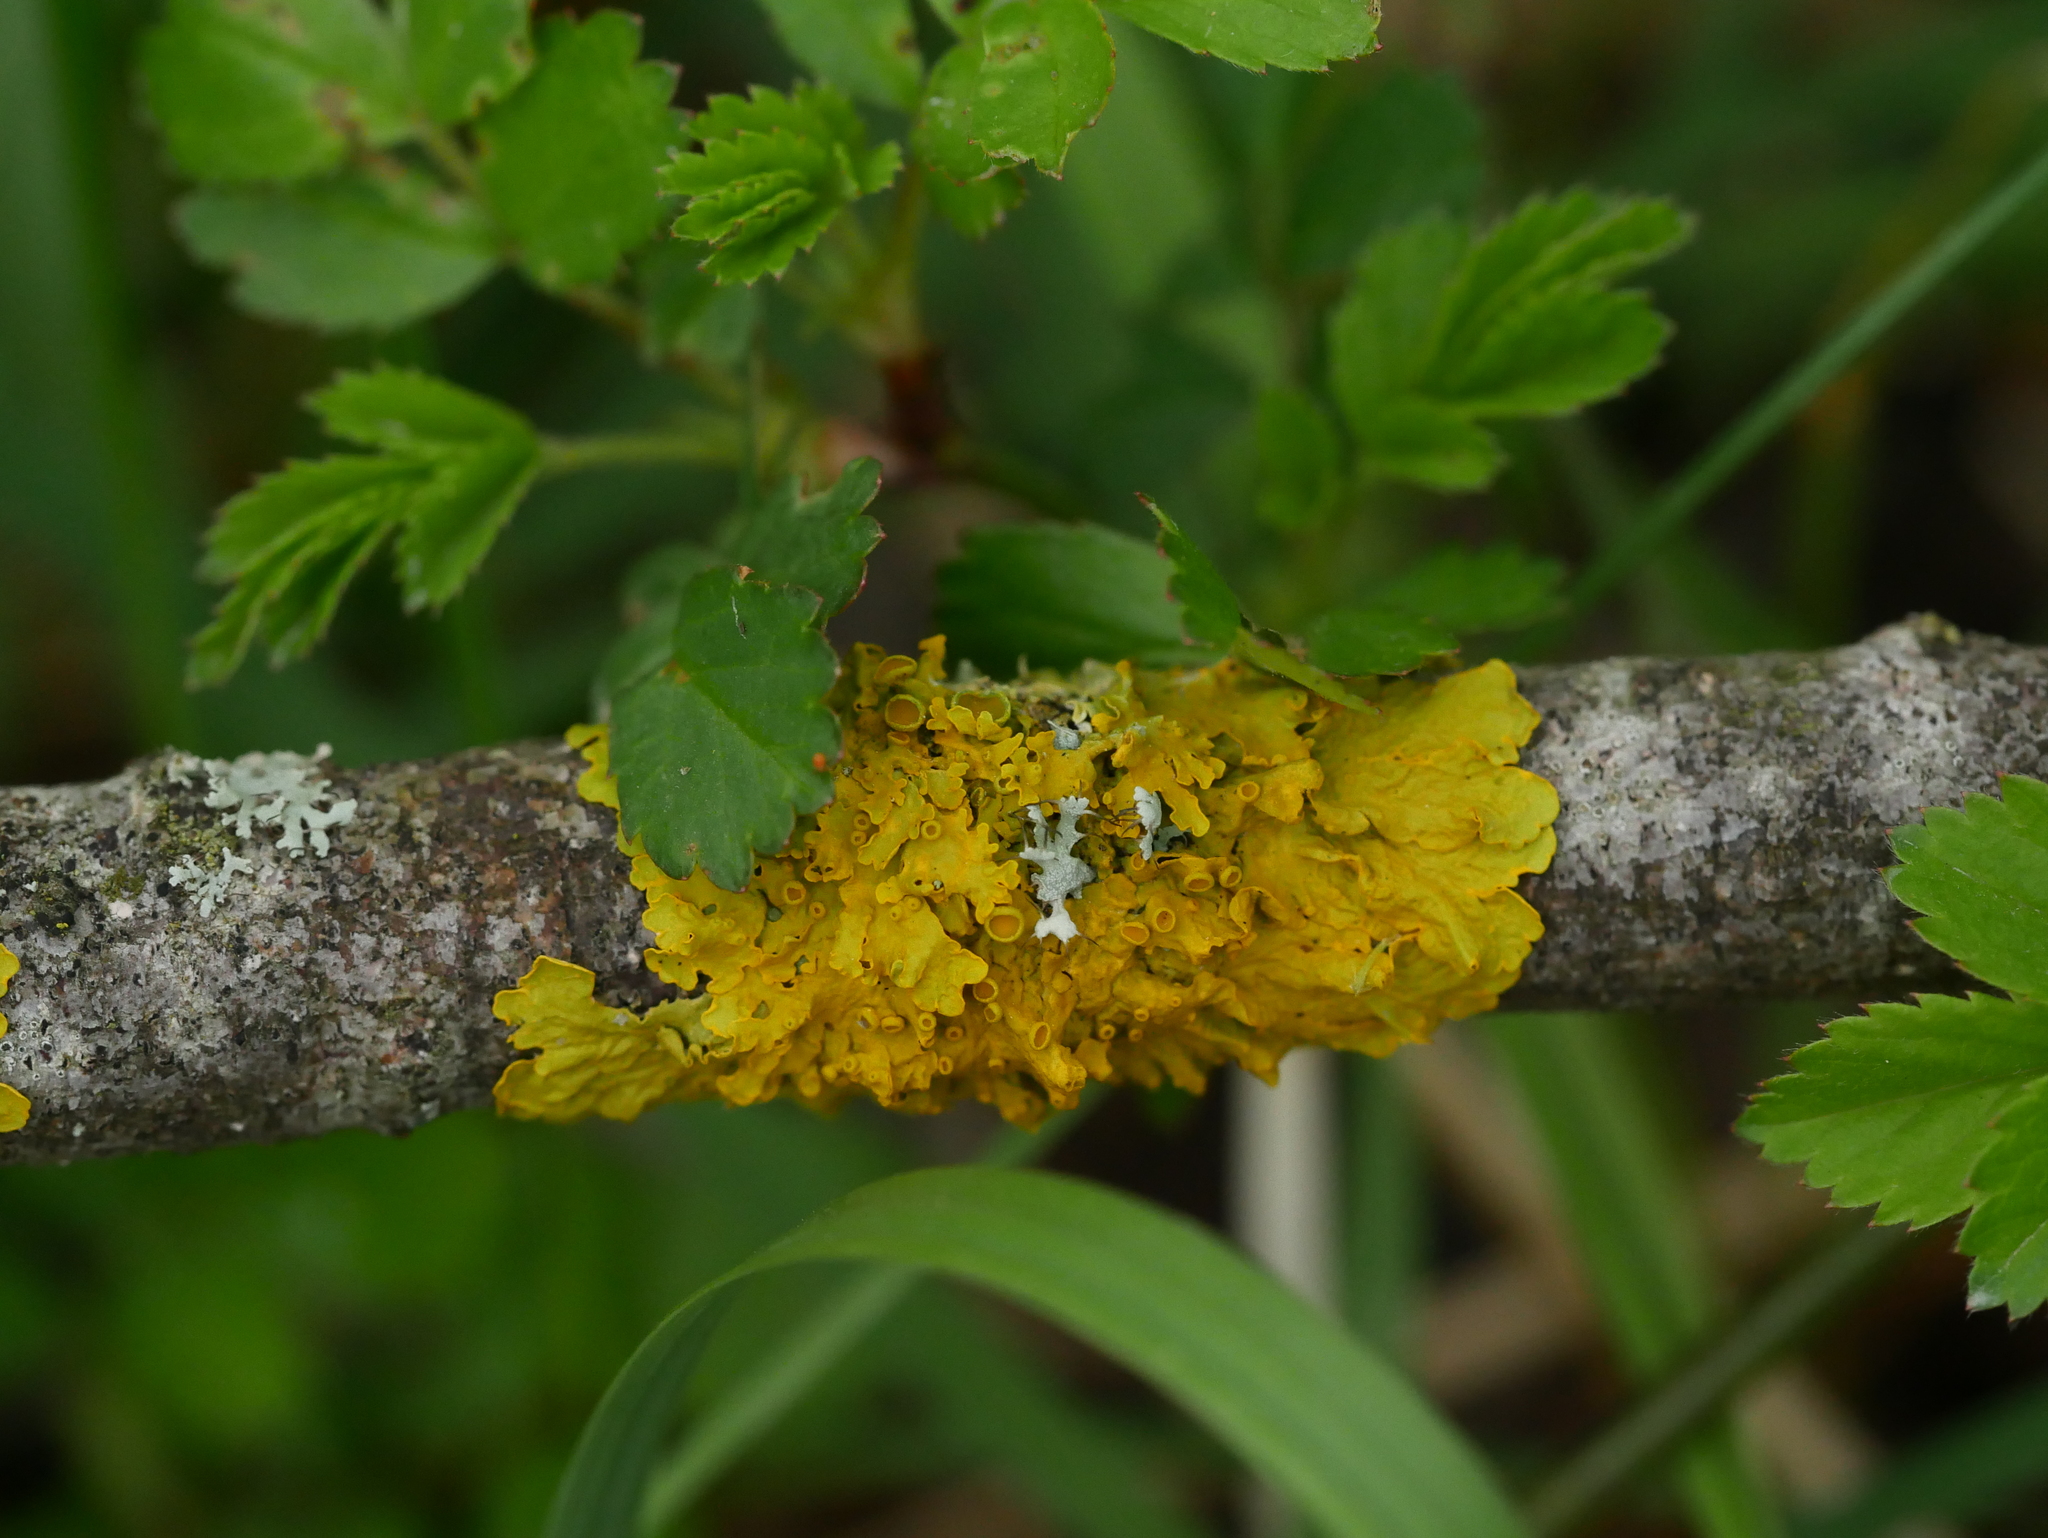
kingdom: Fungi
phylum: Ascomycota
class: Lecanoromycetes
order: Teloschistales
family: Teloschistaceae
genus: Xanthoria
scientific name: Xanthoria parietina
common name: Common orange lichen
